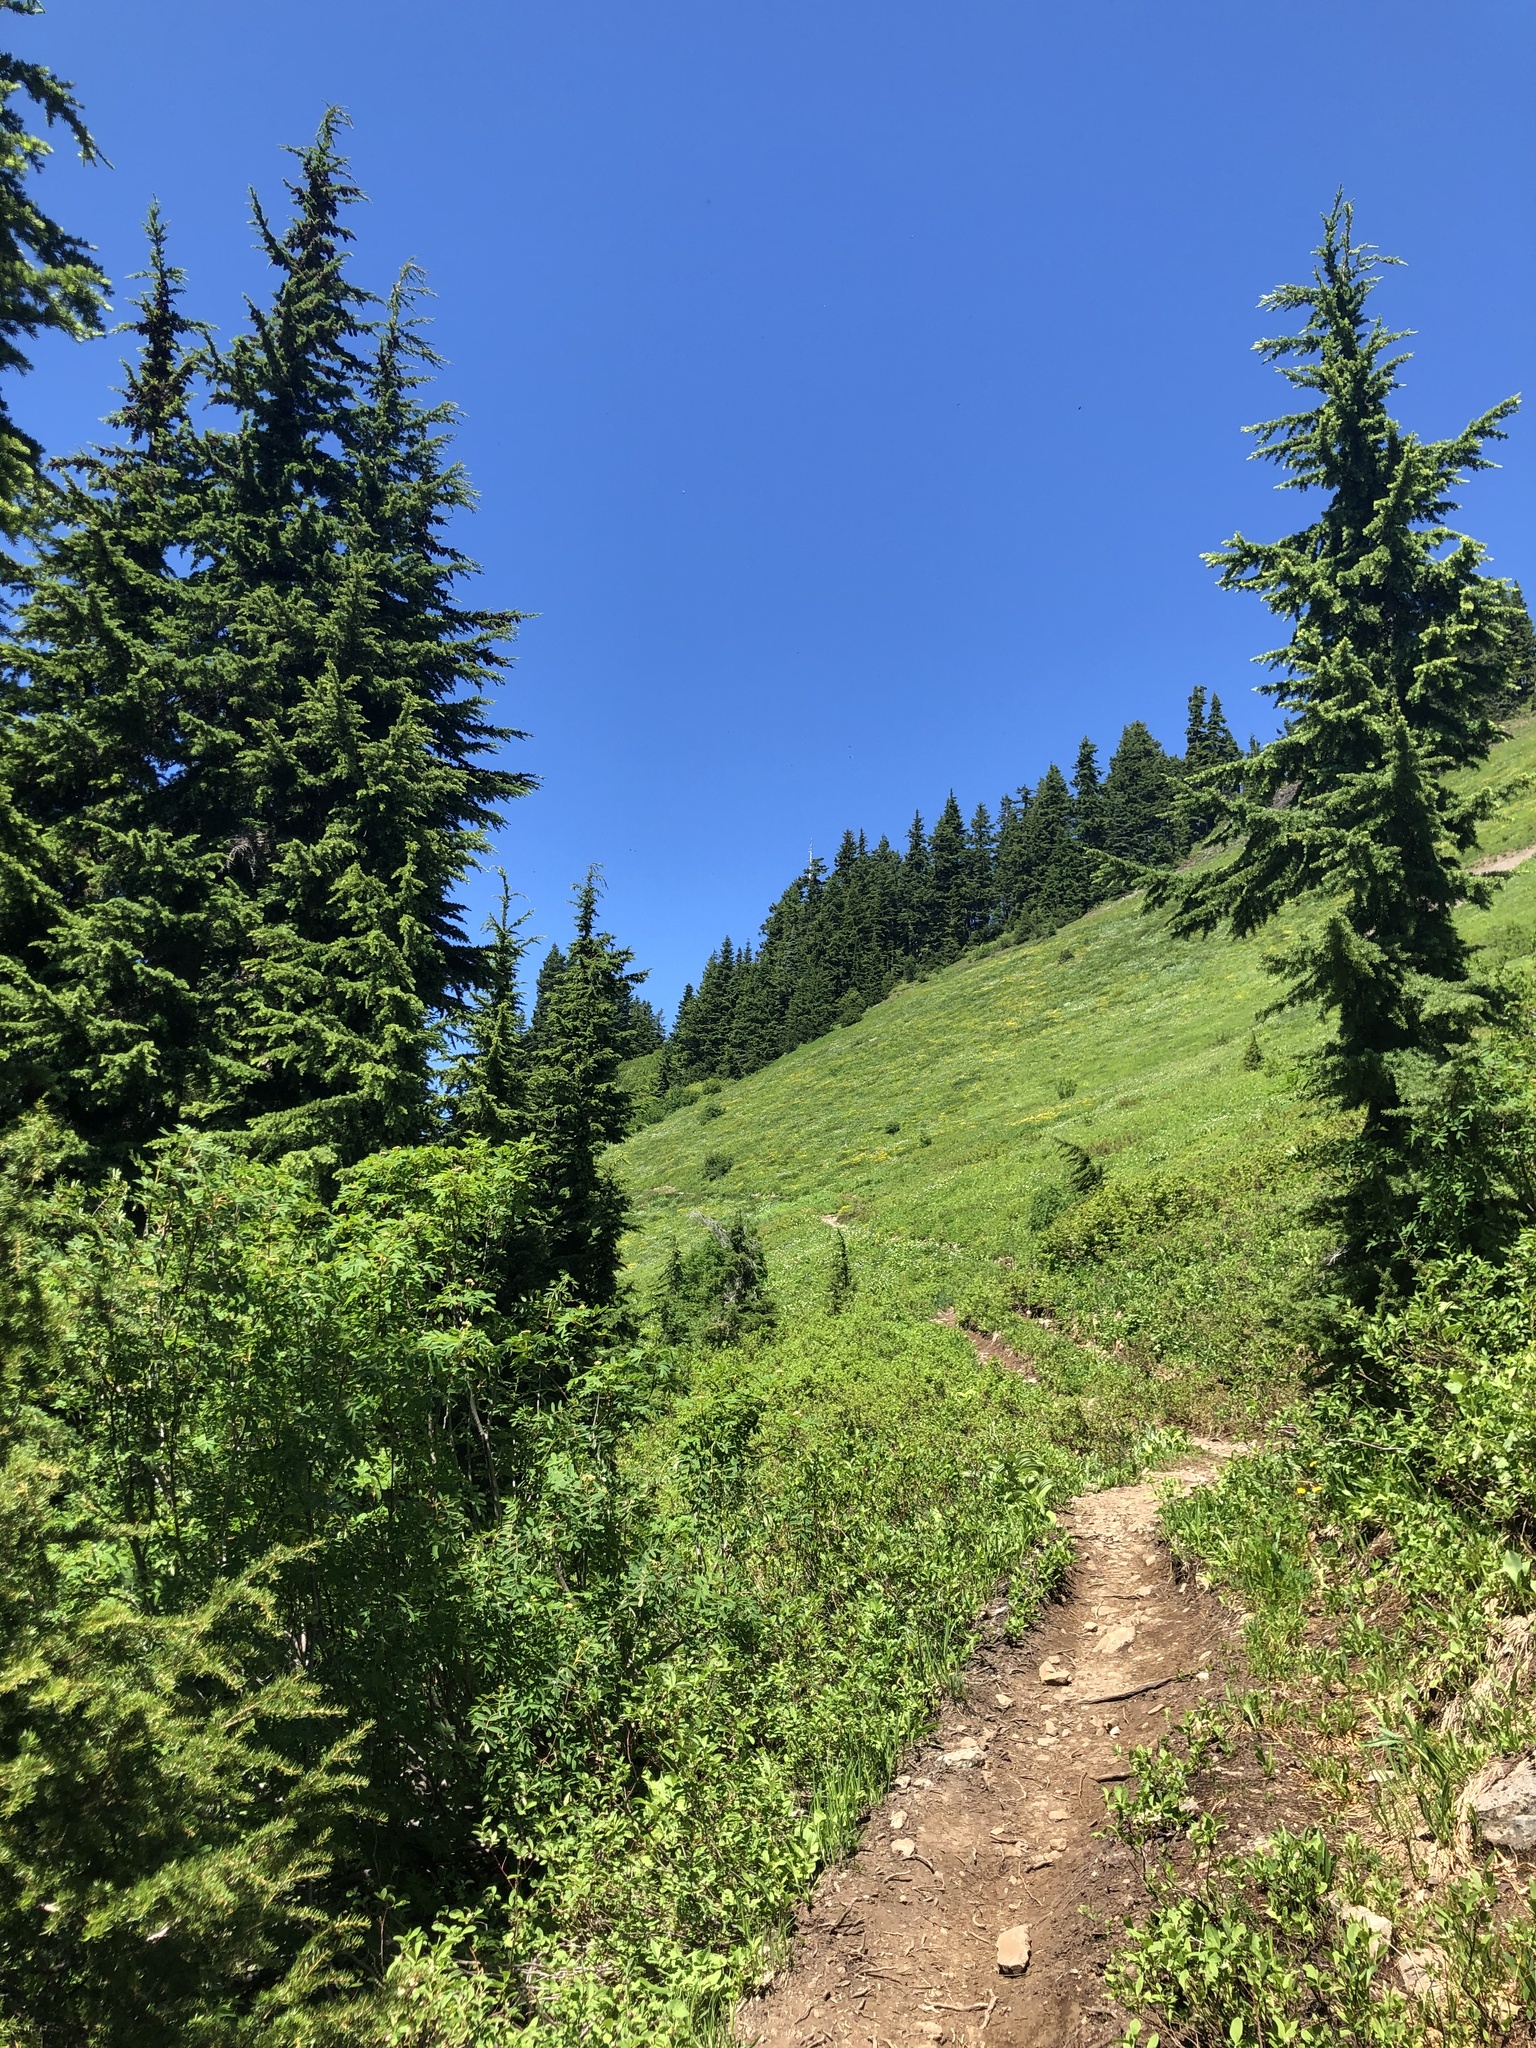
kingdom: Plantae
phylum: Tracheophyta
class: Pinopsida
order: Pinales
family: Pinaceae
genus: Tsuga
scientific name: Tsuga mertensiana
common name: Mountain hemlock
